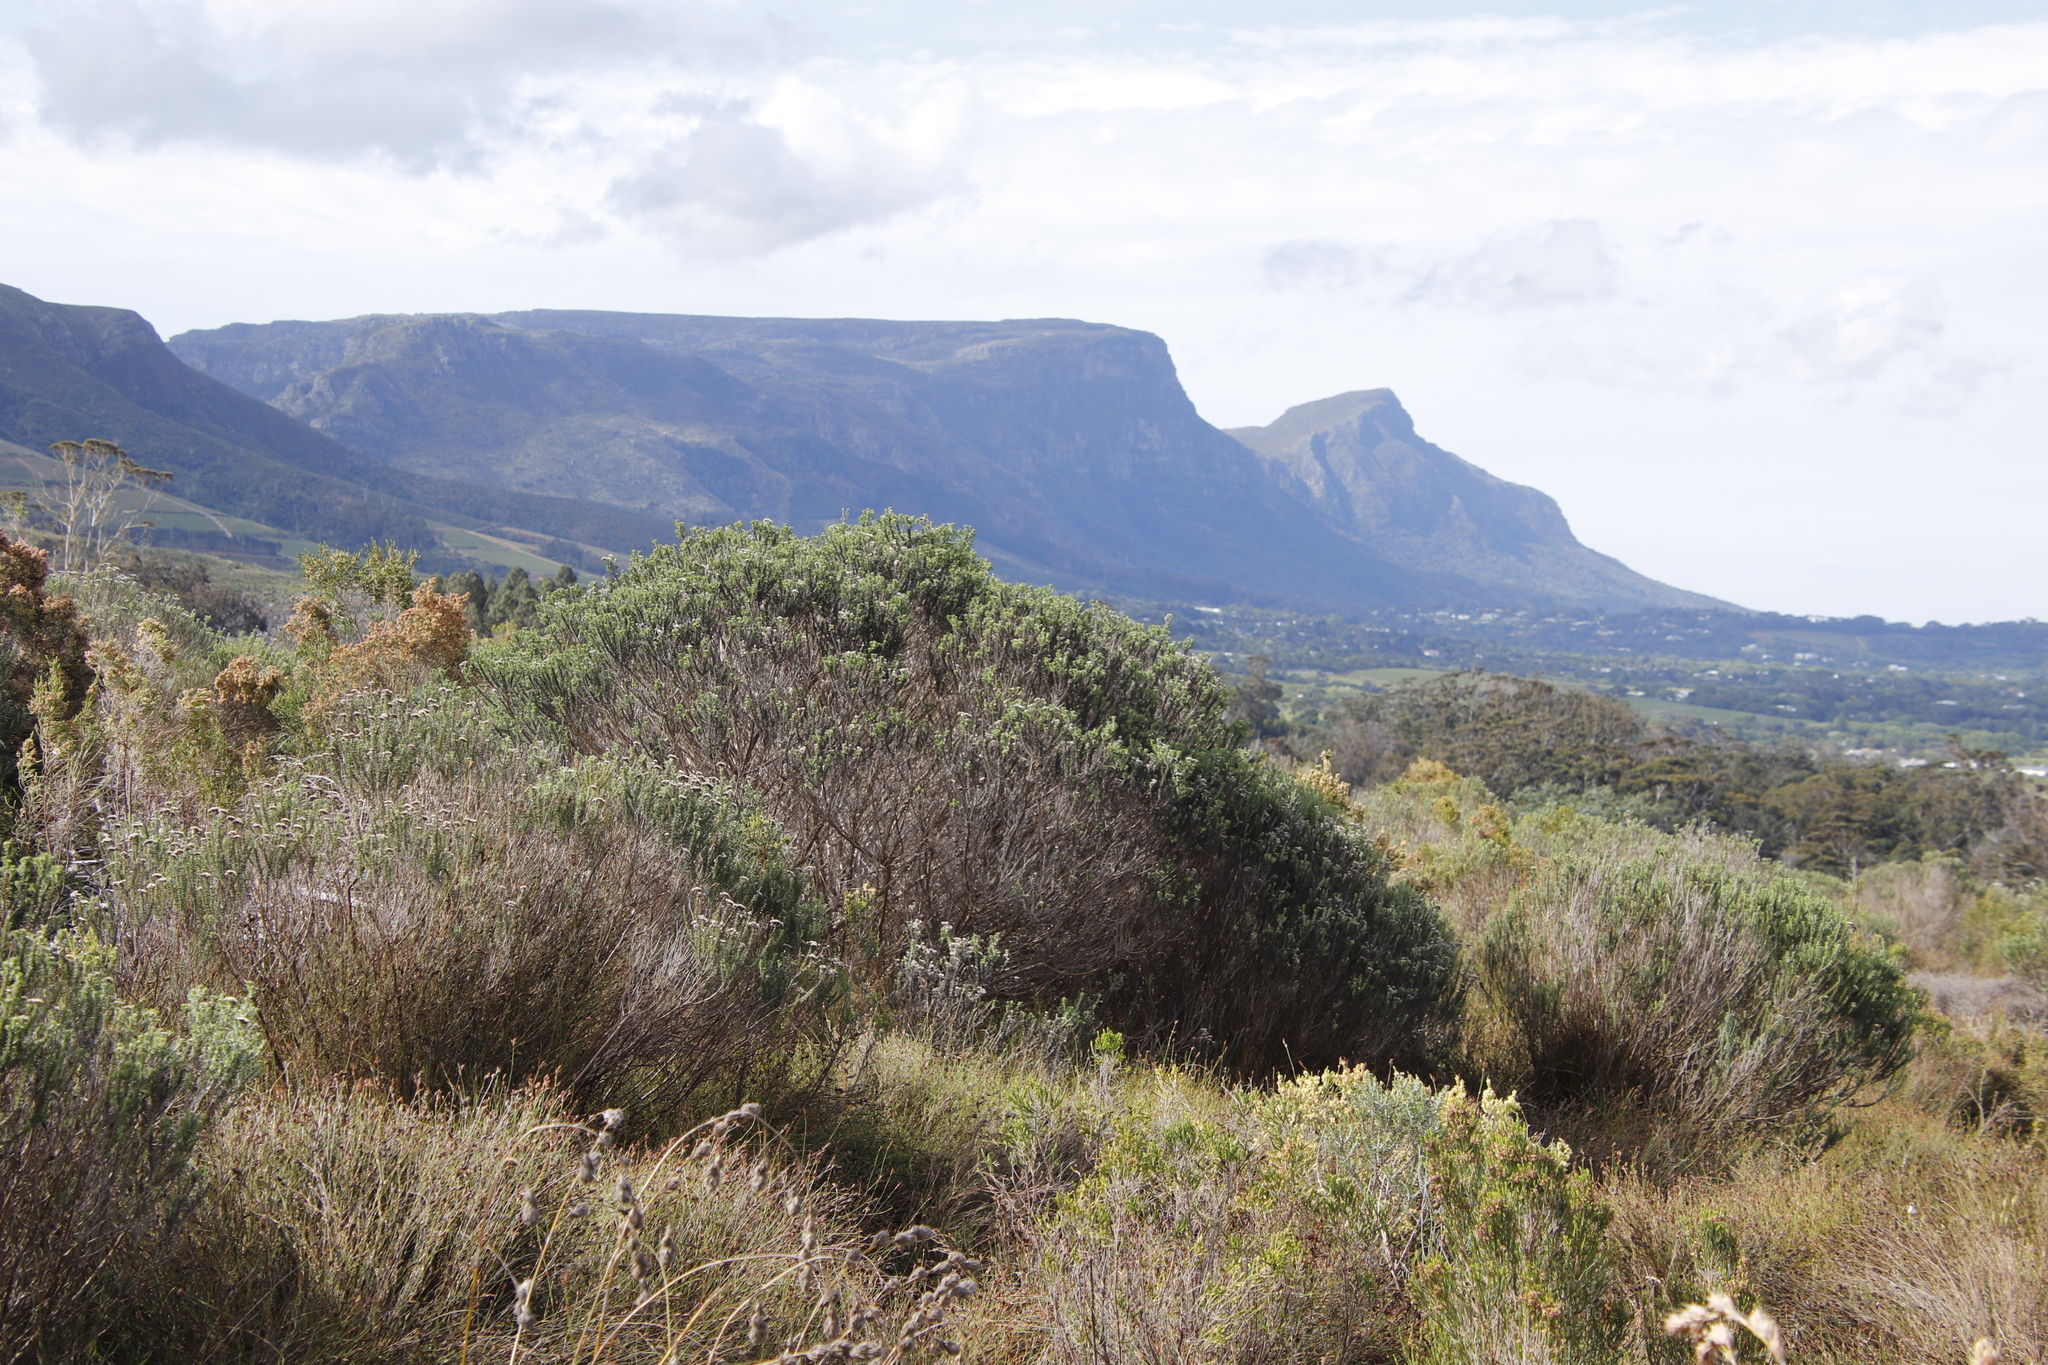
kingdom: Plantae
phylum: Tracheophyta
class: Magnoliopsida
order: Asterales
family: Asteraceae
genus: Metalasia
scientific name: Metalasia densa
